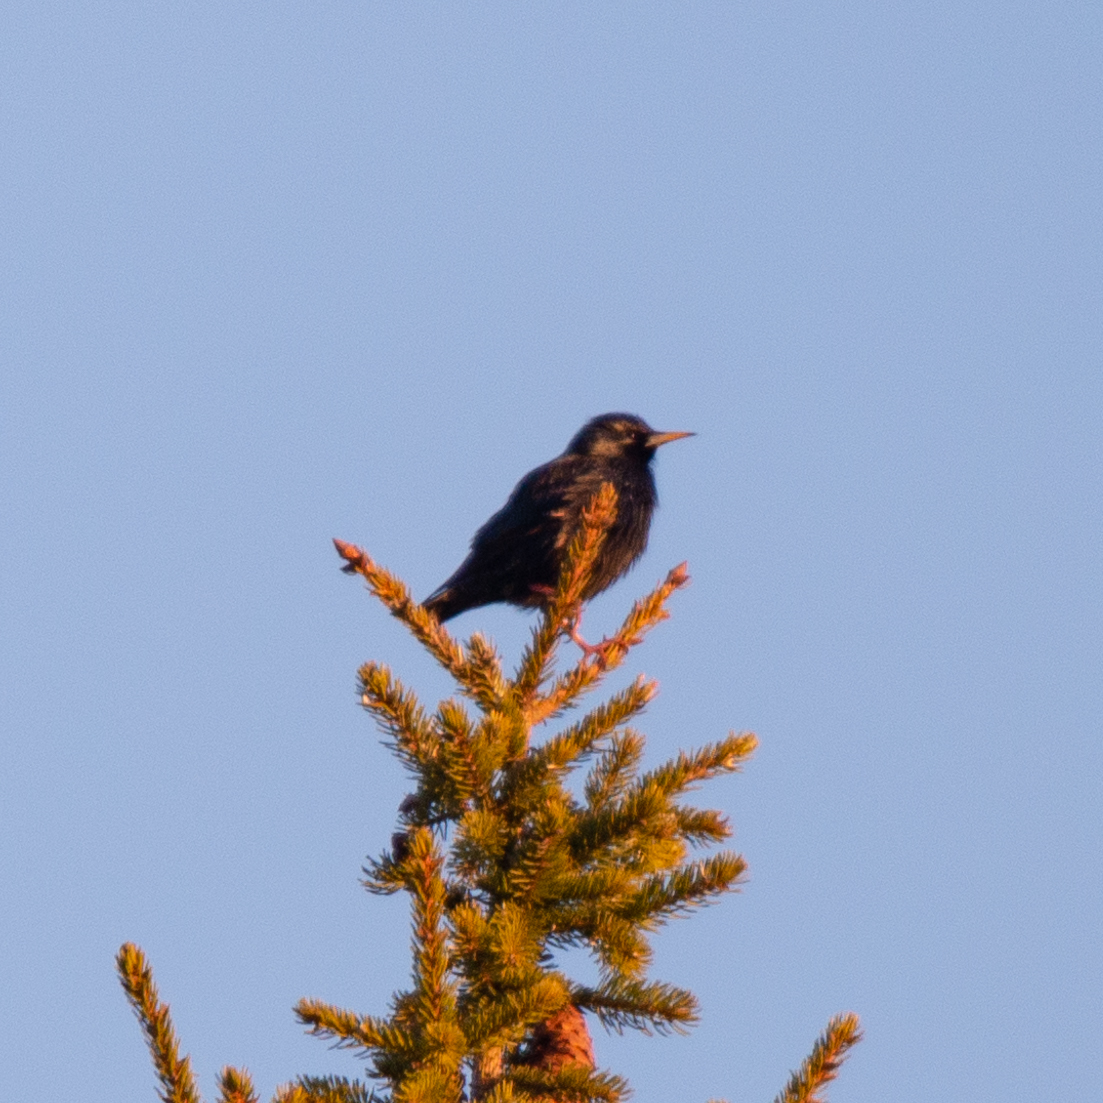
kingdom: Animalia
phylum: Chordata
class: Aves
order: Passeriformes
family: Sturnidae
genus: Sturnus
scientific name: Sturnus unicolor
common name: Spotless starling
